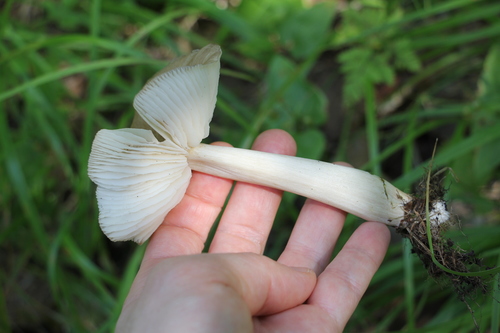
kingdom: Fungi
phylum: Basidiomycota
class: Agaricomycetes
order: Agaricales
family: Tricholomataceae
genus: Megacollybia
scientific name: Megacollybia platyphylla
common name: Whitelaced shank
